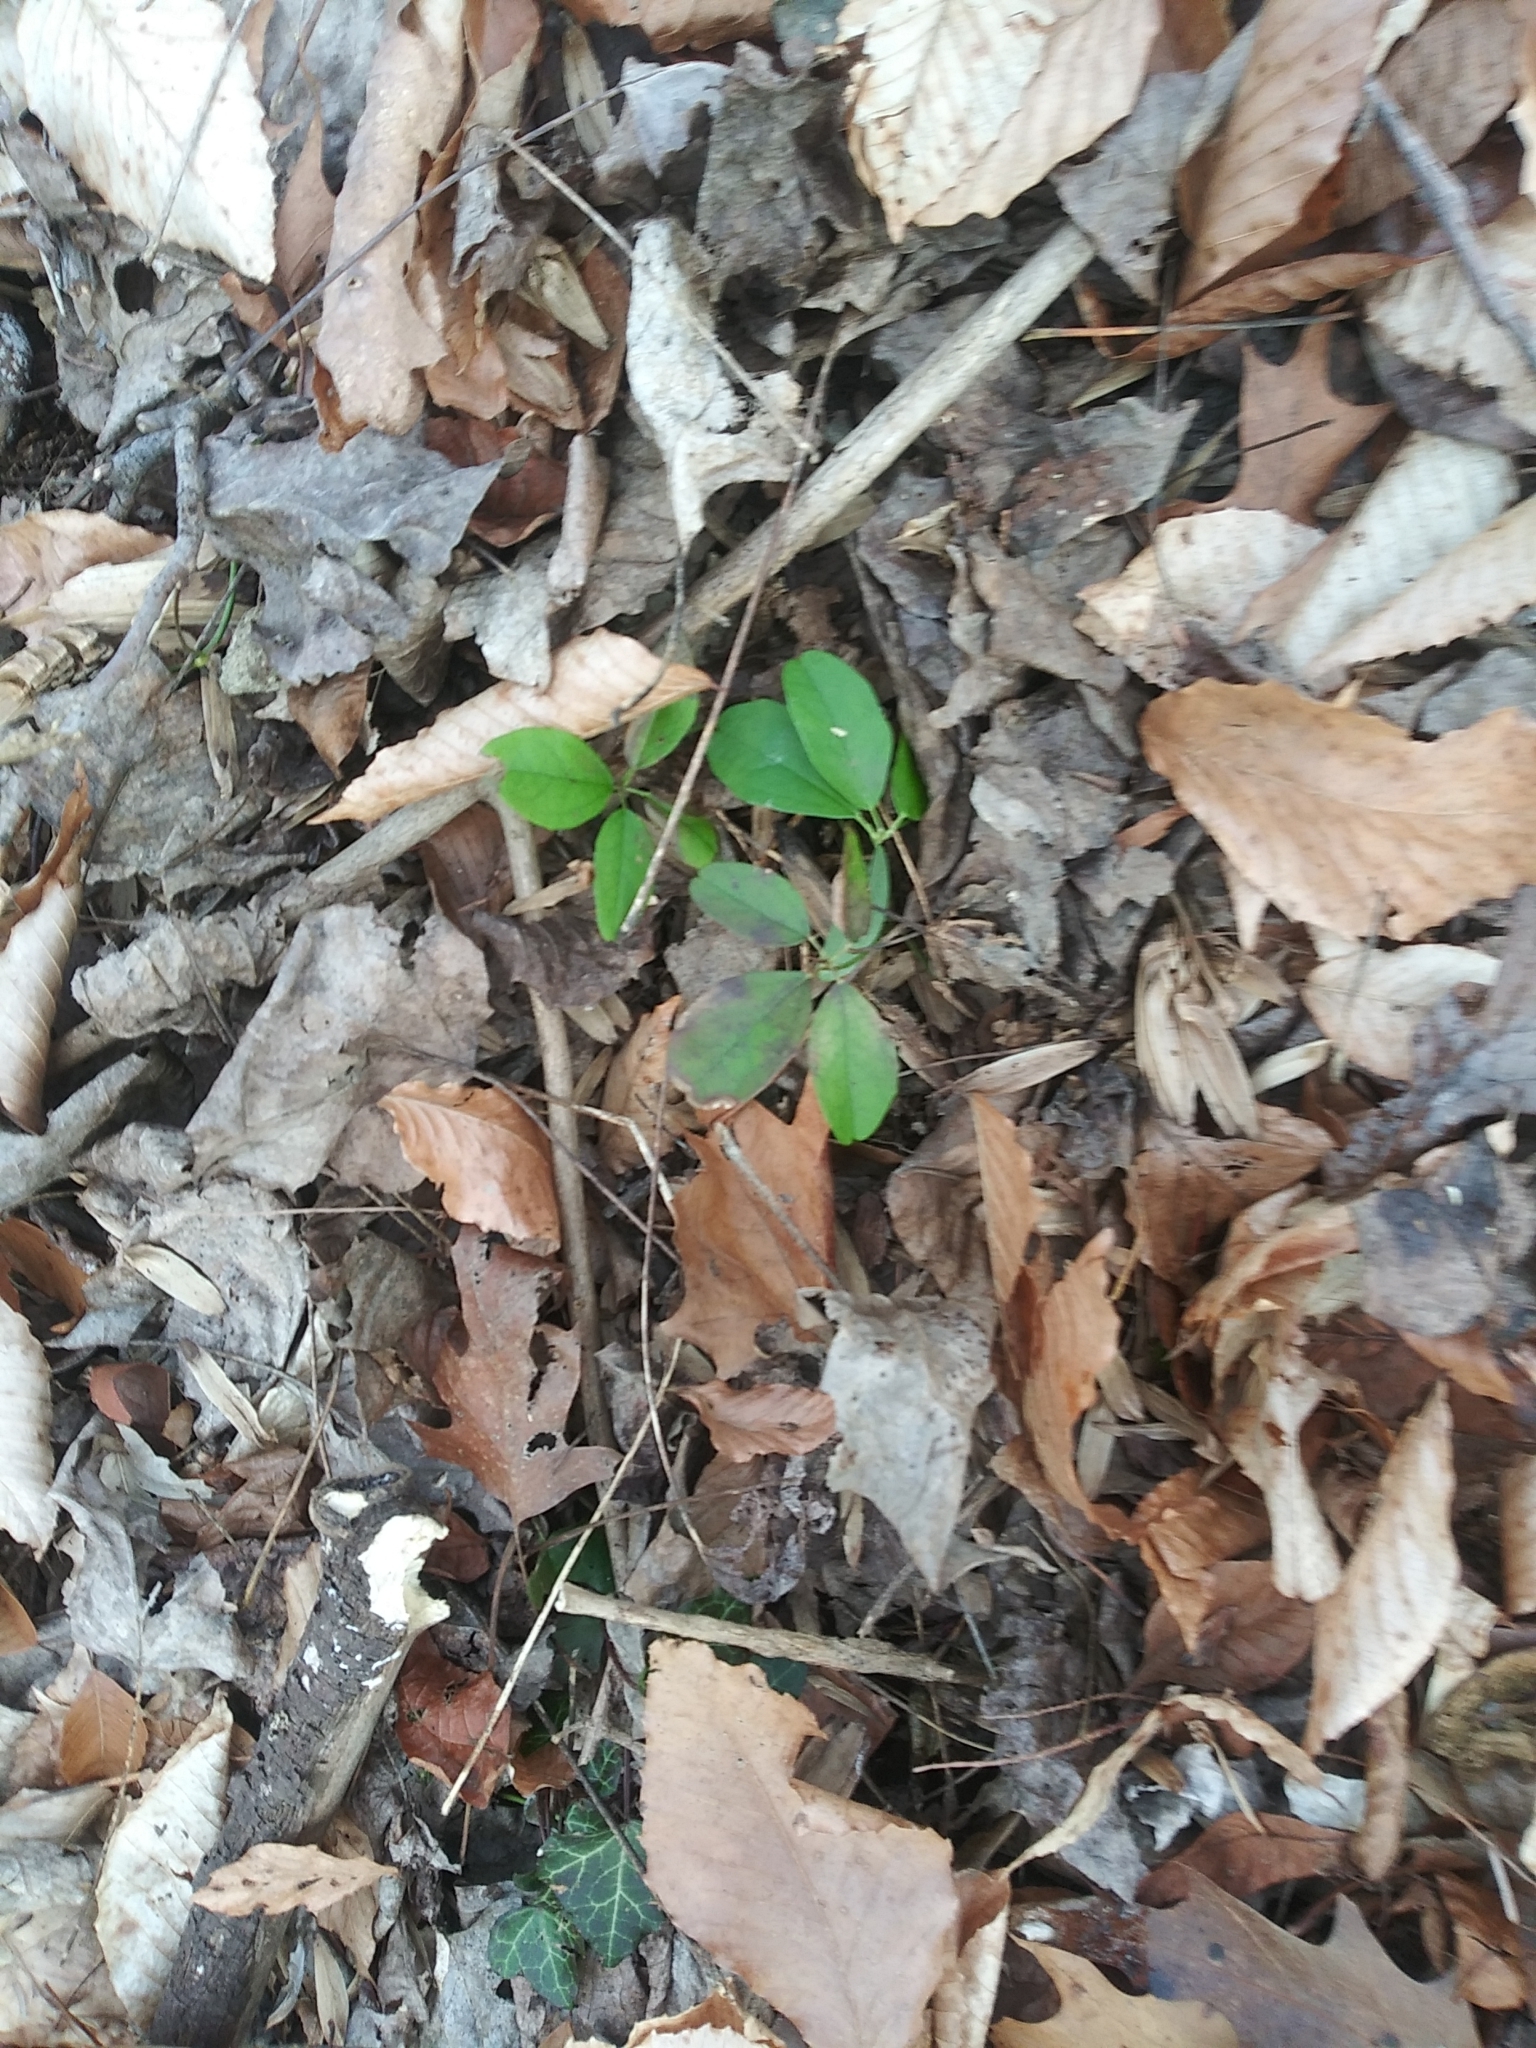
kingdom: Plantae
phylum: Tracheophyta
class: Magnoliopsida
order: Ranunculales
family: Lardizabalaceae
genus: Akebia
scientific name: Akebia quinata
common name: Five-leaf akebia
